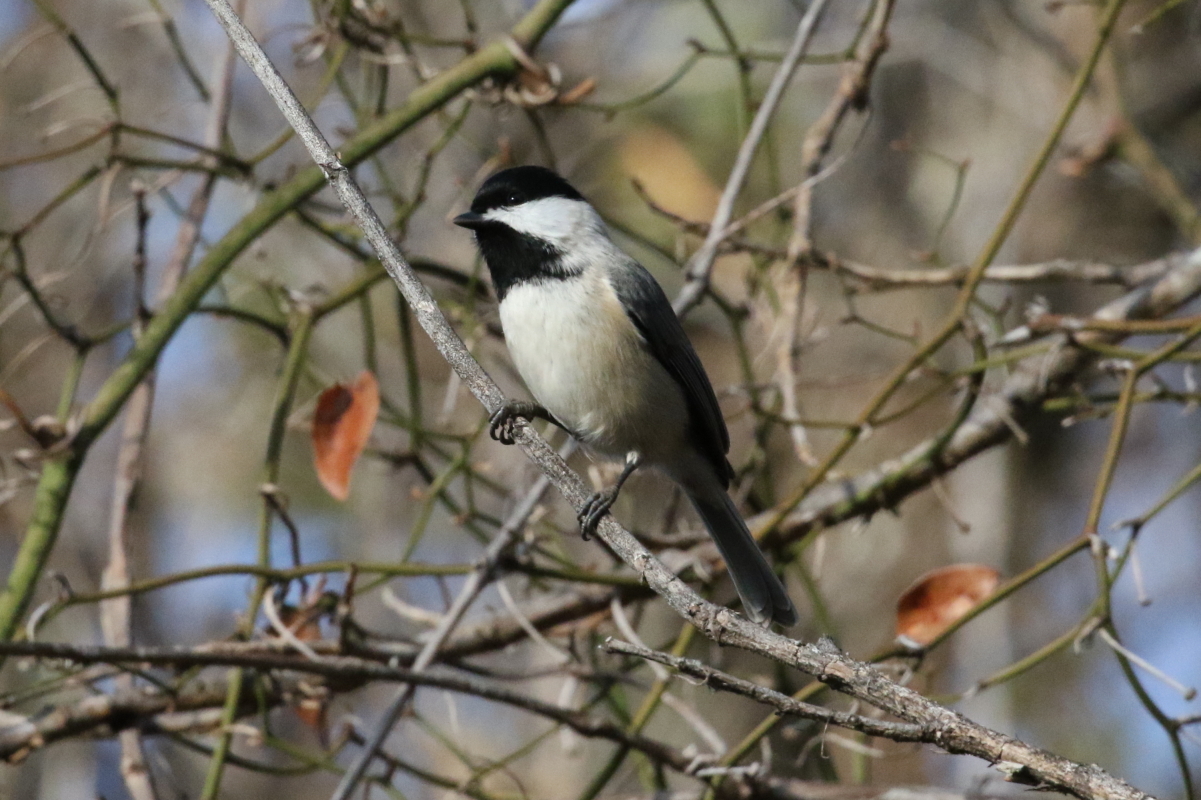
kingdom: Animalia
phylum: Chordata
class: Aves
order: Passeriformes
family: Paridae
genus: Poecile
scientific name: Poecile carolinensis
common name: Carolina chickadee
